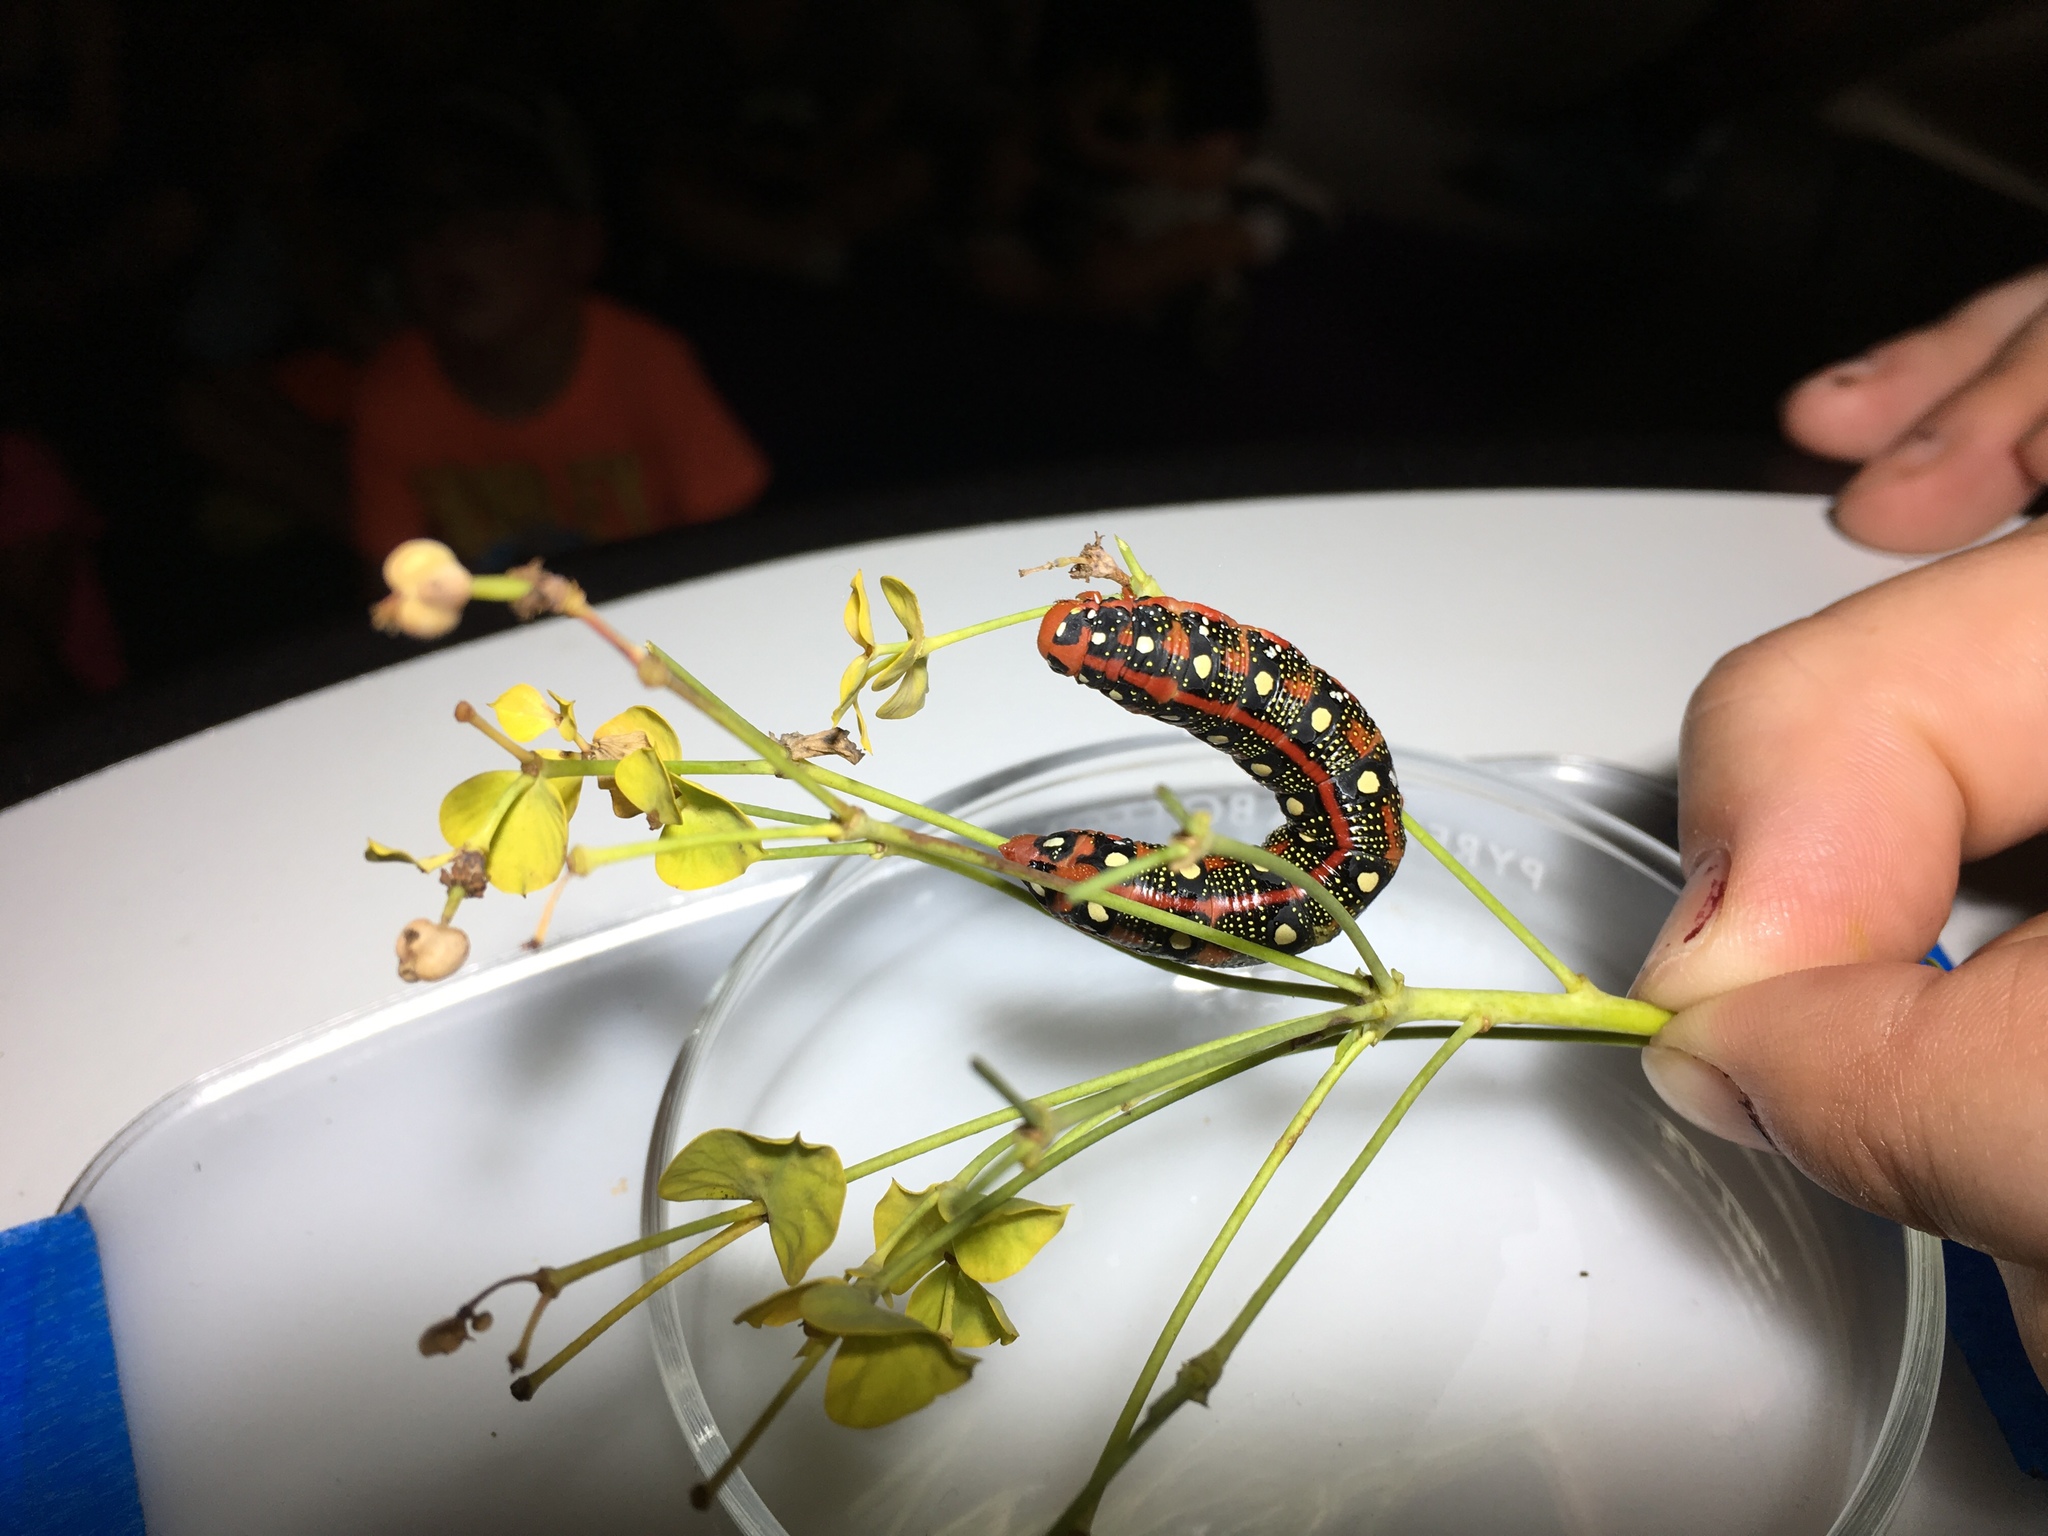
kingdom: Animalia
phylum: Arthropoda
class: Insecta
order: Lepidoptera
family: Sphingidae
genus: Hyles
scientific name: Hyles euphorbiae
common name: Spurge hawk-moth
